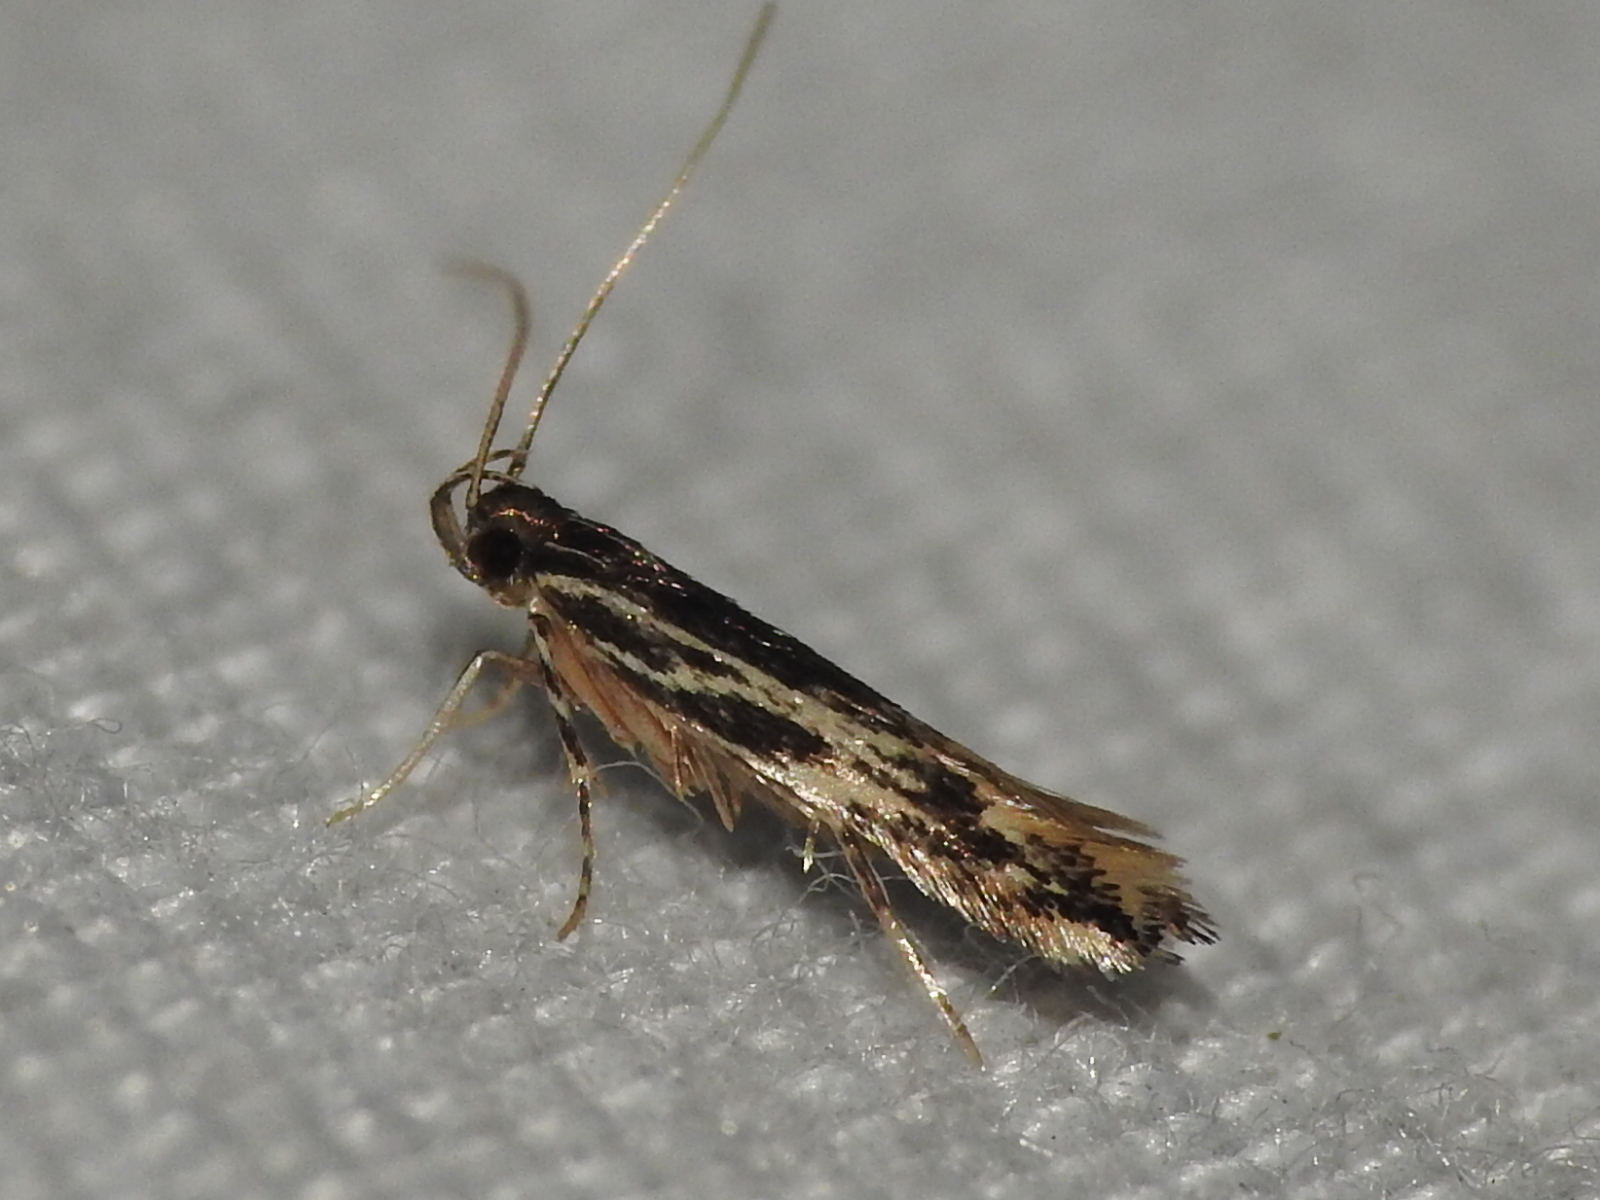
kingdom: Animalia
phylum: Arthropoda
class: Insecta
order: Lepidoptera
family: Cosmopterigidae
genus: Eralea
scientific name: Eralea albalineella
